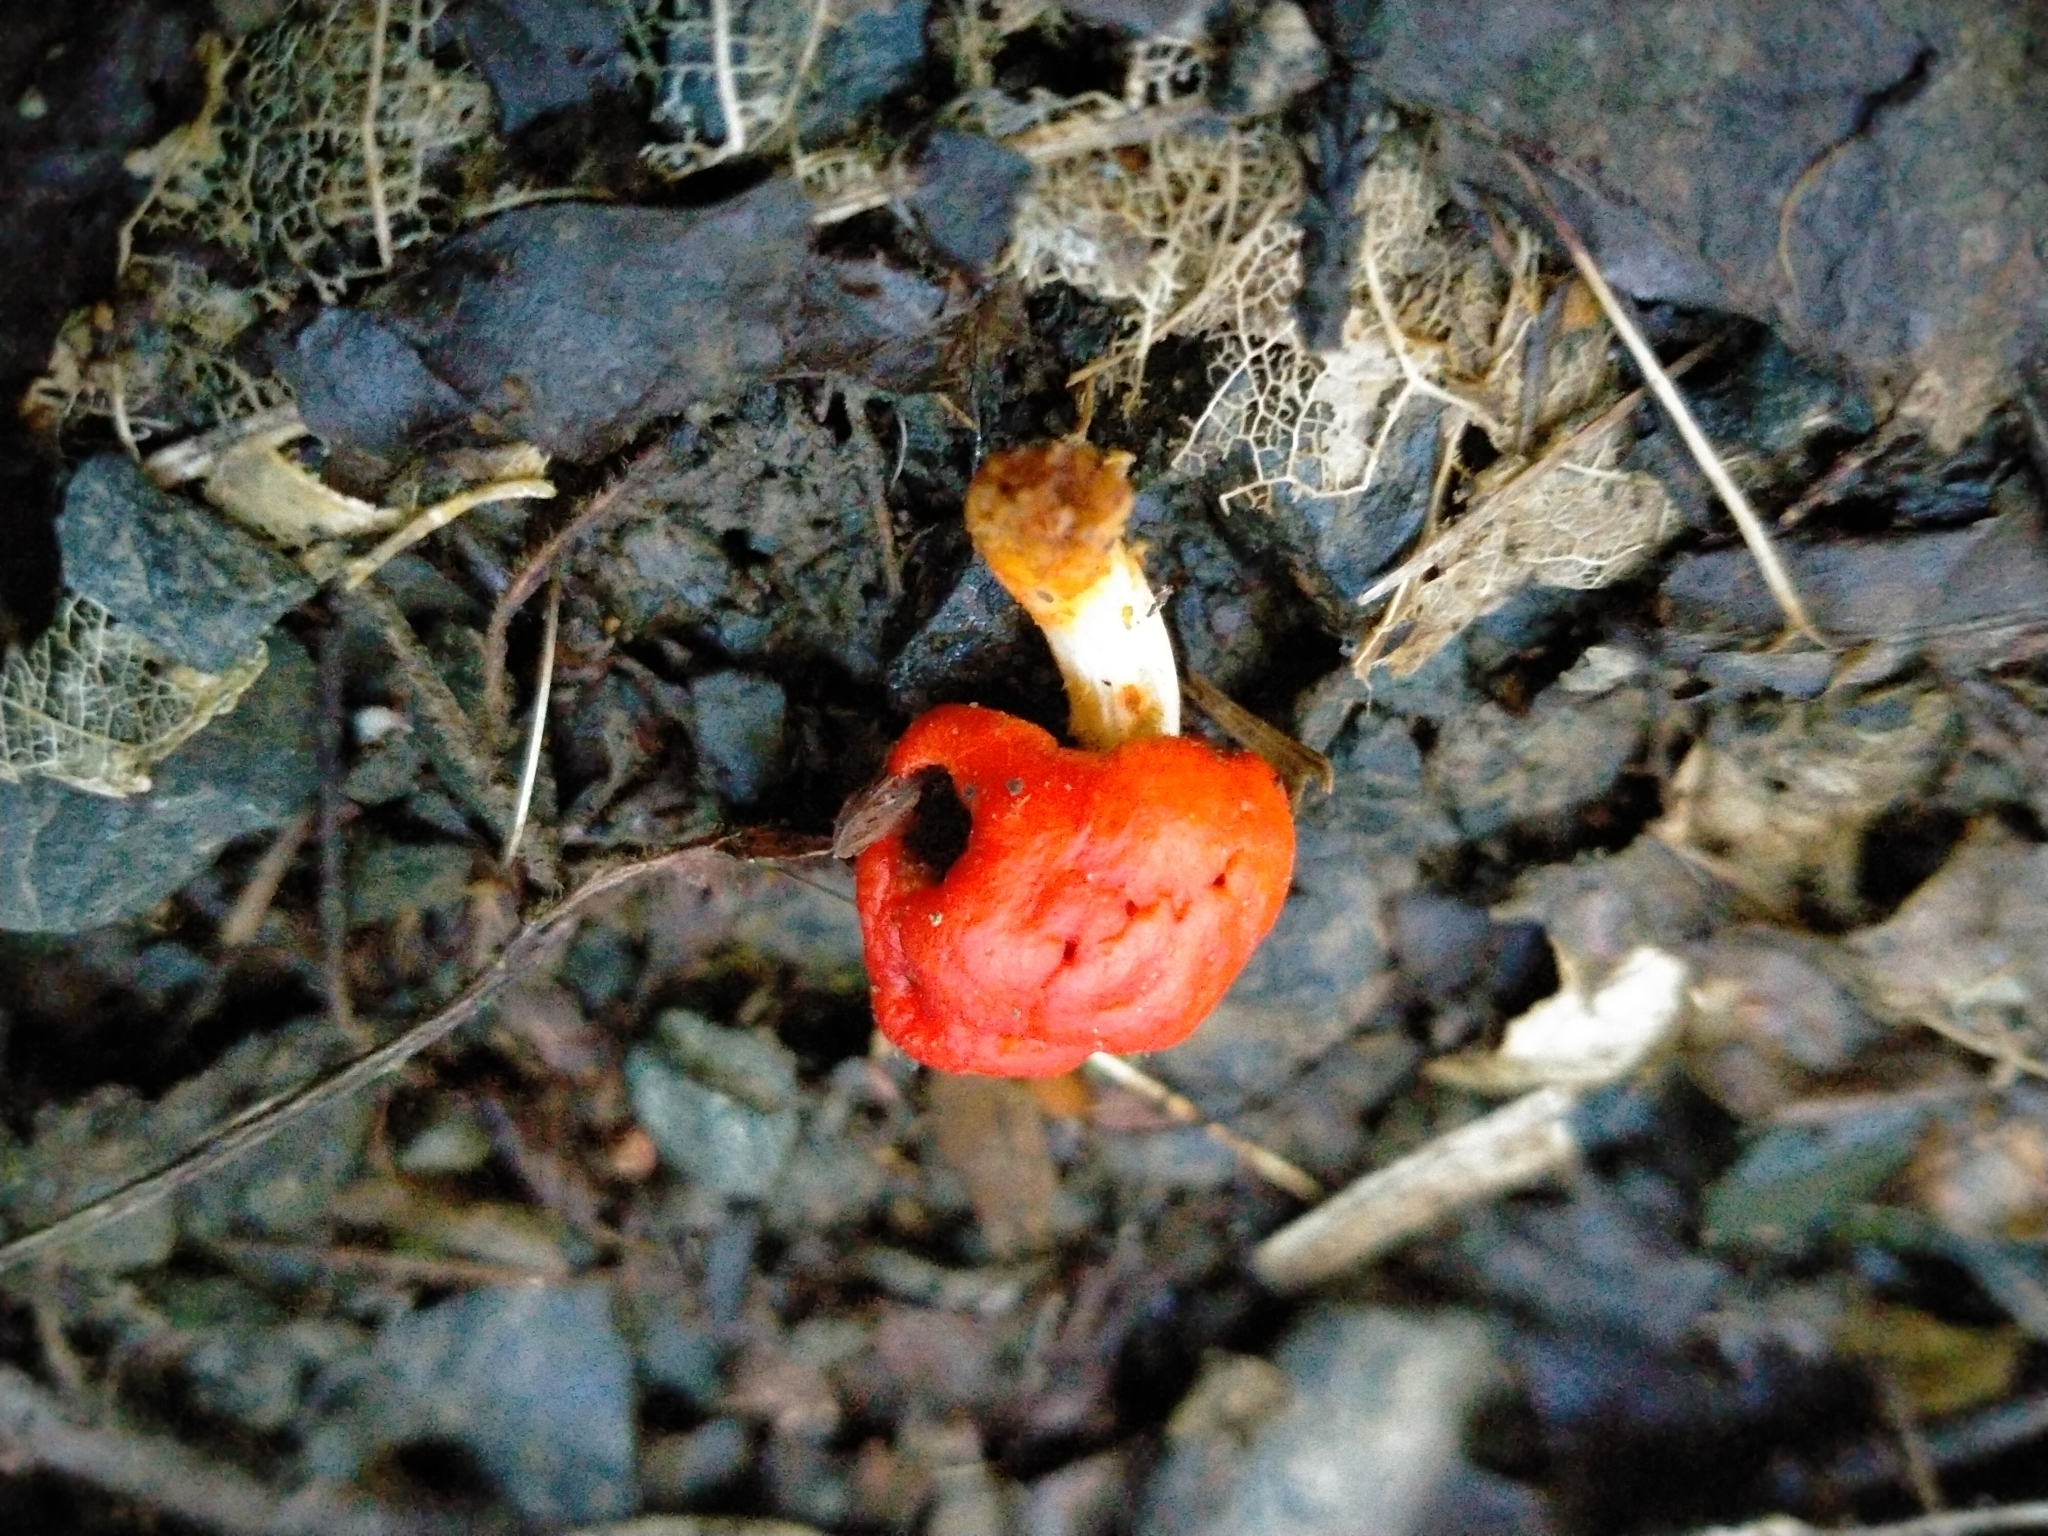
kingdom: Fungi
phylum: Basidiomycota
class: Agaricomycetes
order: Agaricales
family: Strophariaceae
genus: Leratiomyces
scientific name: Leratiomyces erythrocephalus
